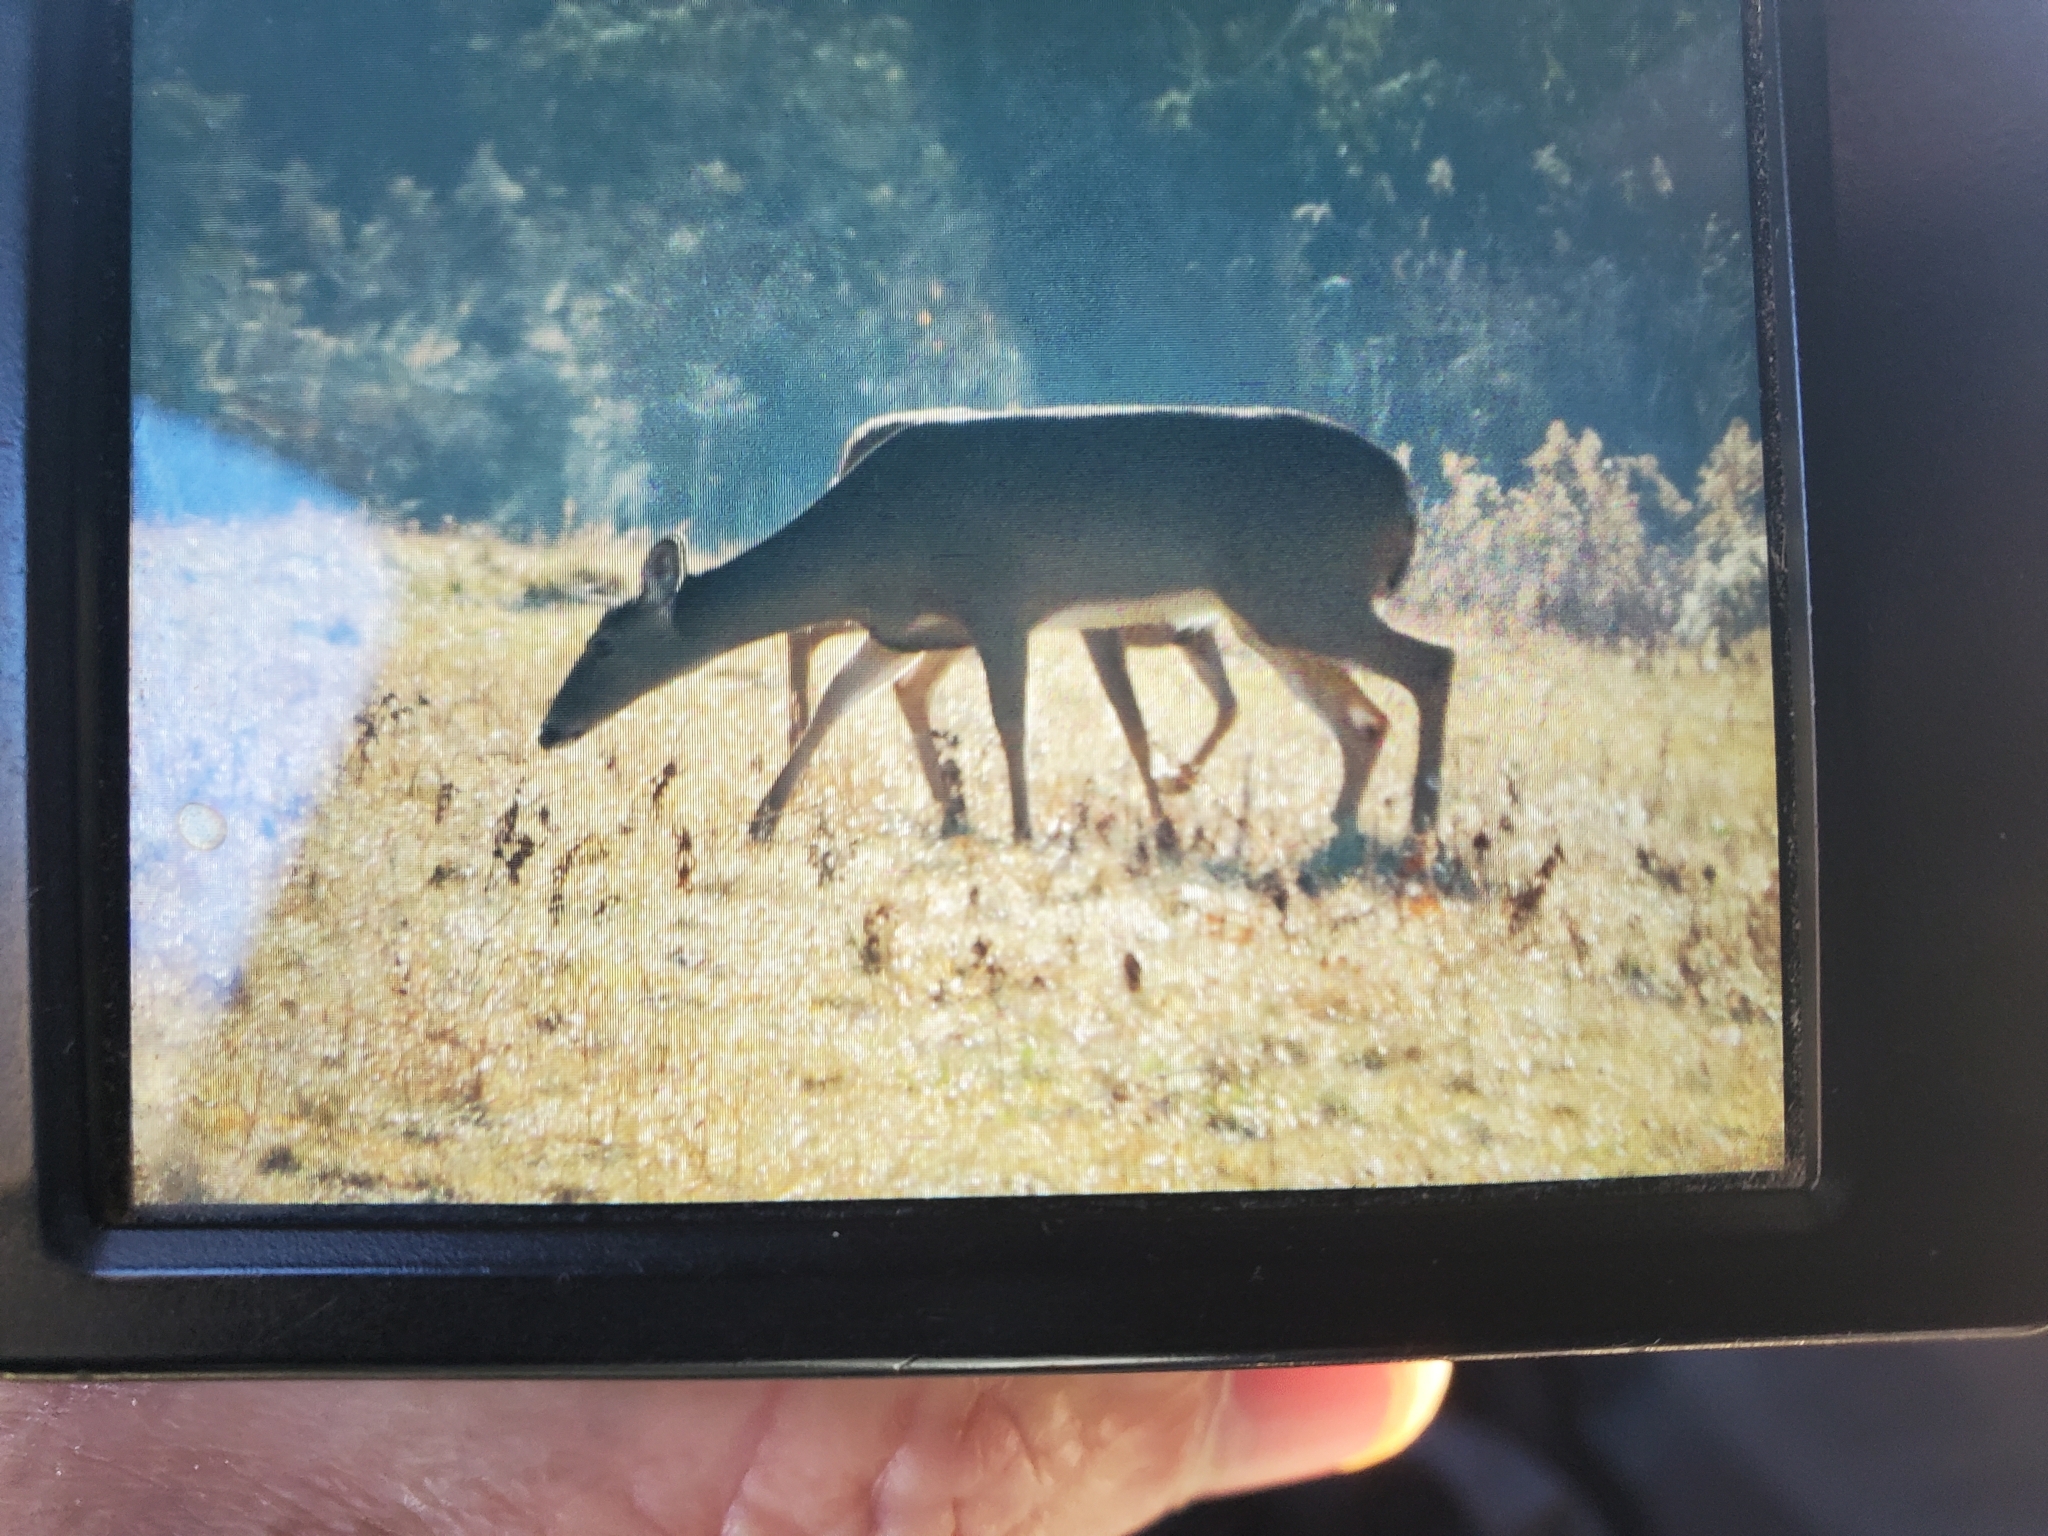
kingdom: Animalia
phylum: Chordata
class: Mammalia
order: Artiodactyla
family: Cervidae
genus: Odocoileus
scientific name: Odocoileus virginianus
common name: White-tailed deer
